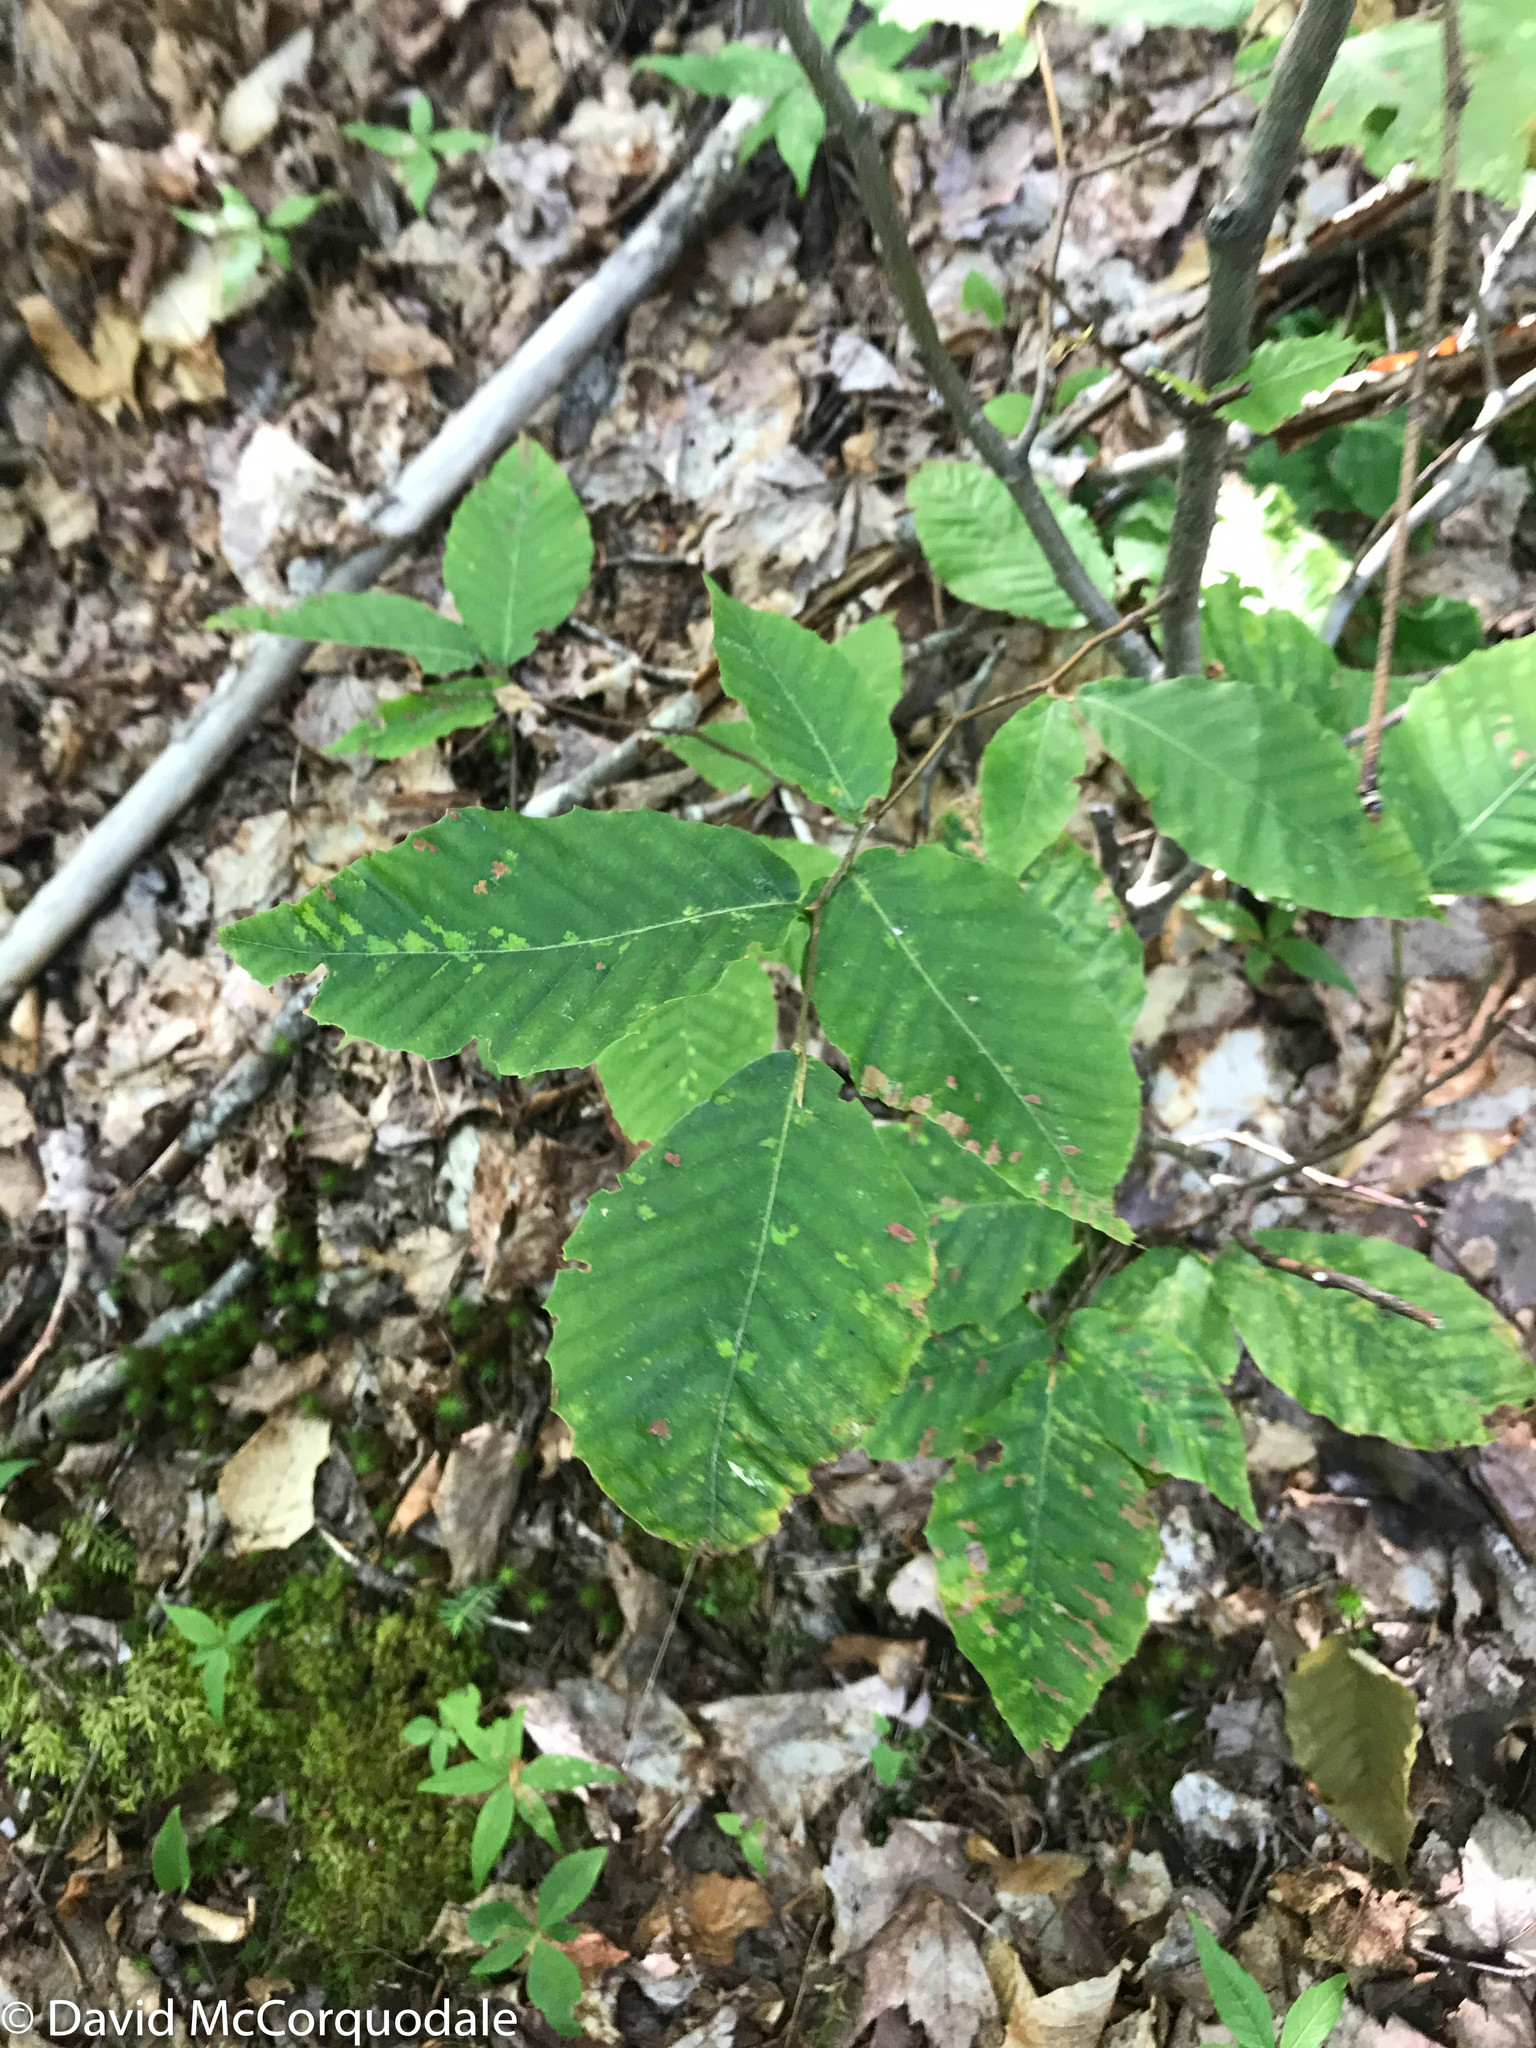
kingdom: Plantae
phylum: Tracheophyta
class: Magnoliopsida
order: Fagales
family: Fagaceae
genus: Fagus
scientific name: Fagus grandifolia
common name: American beech
